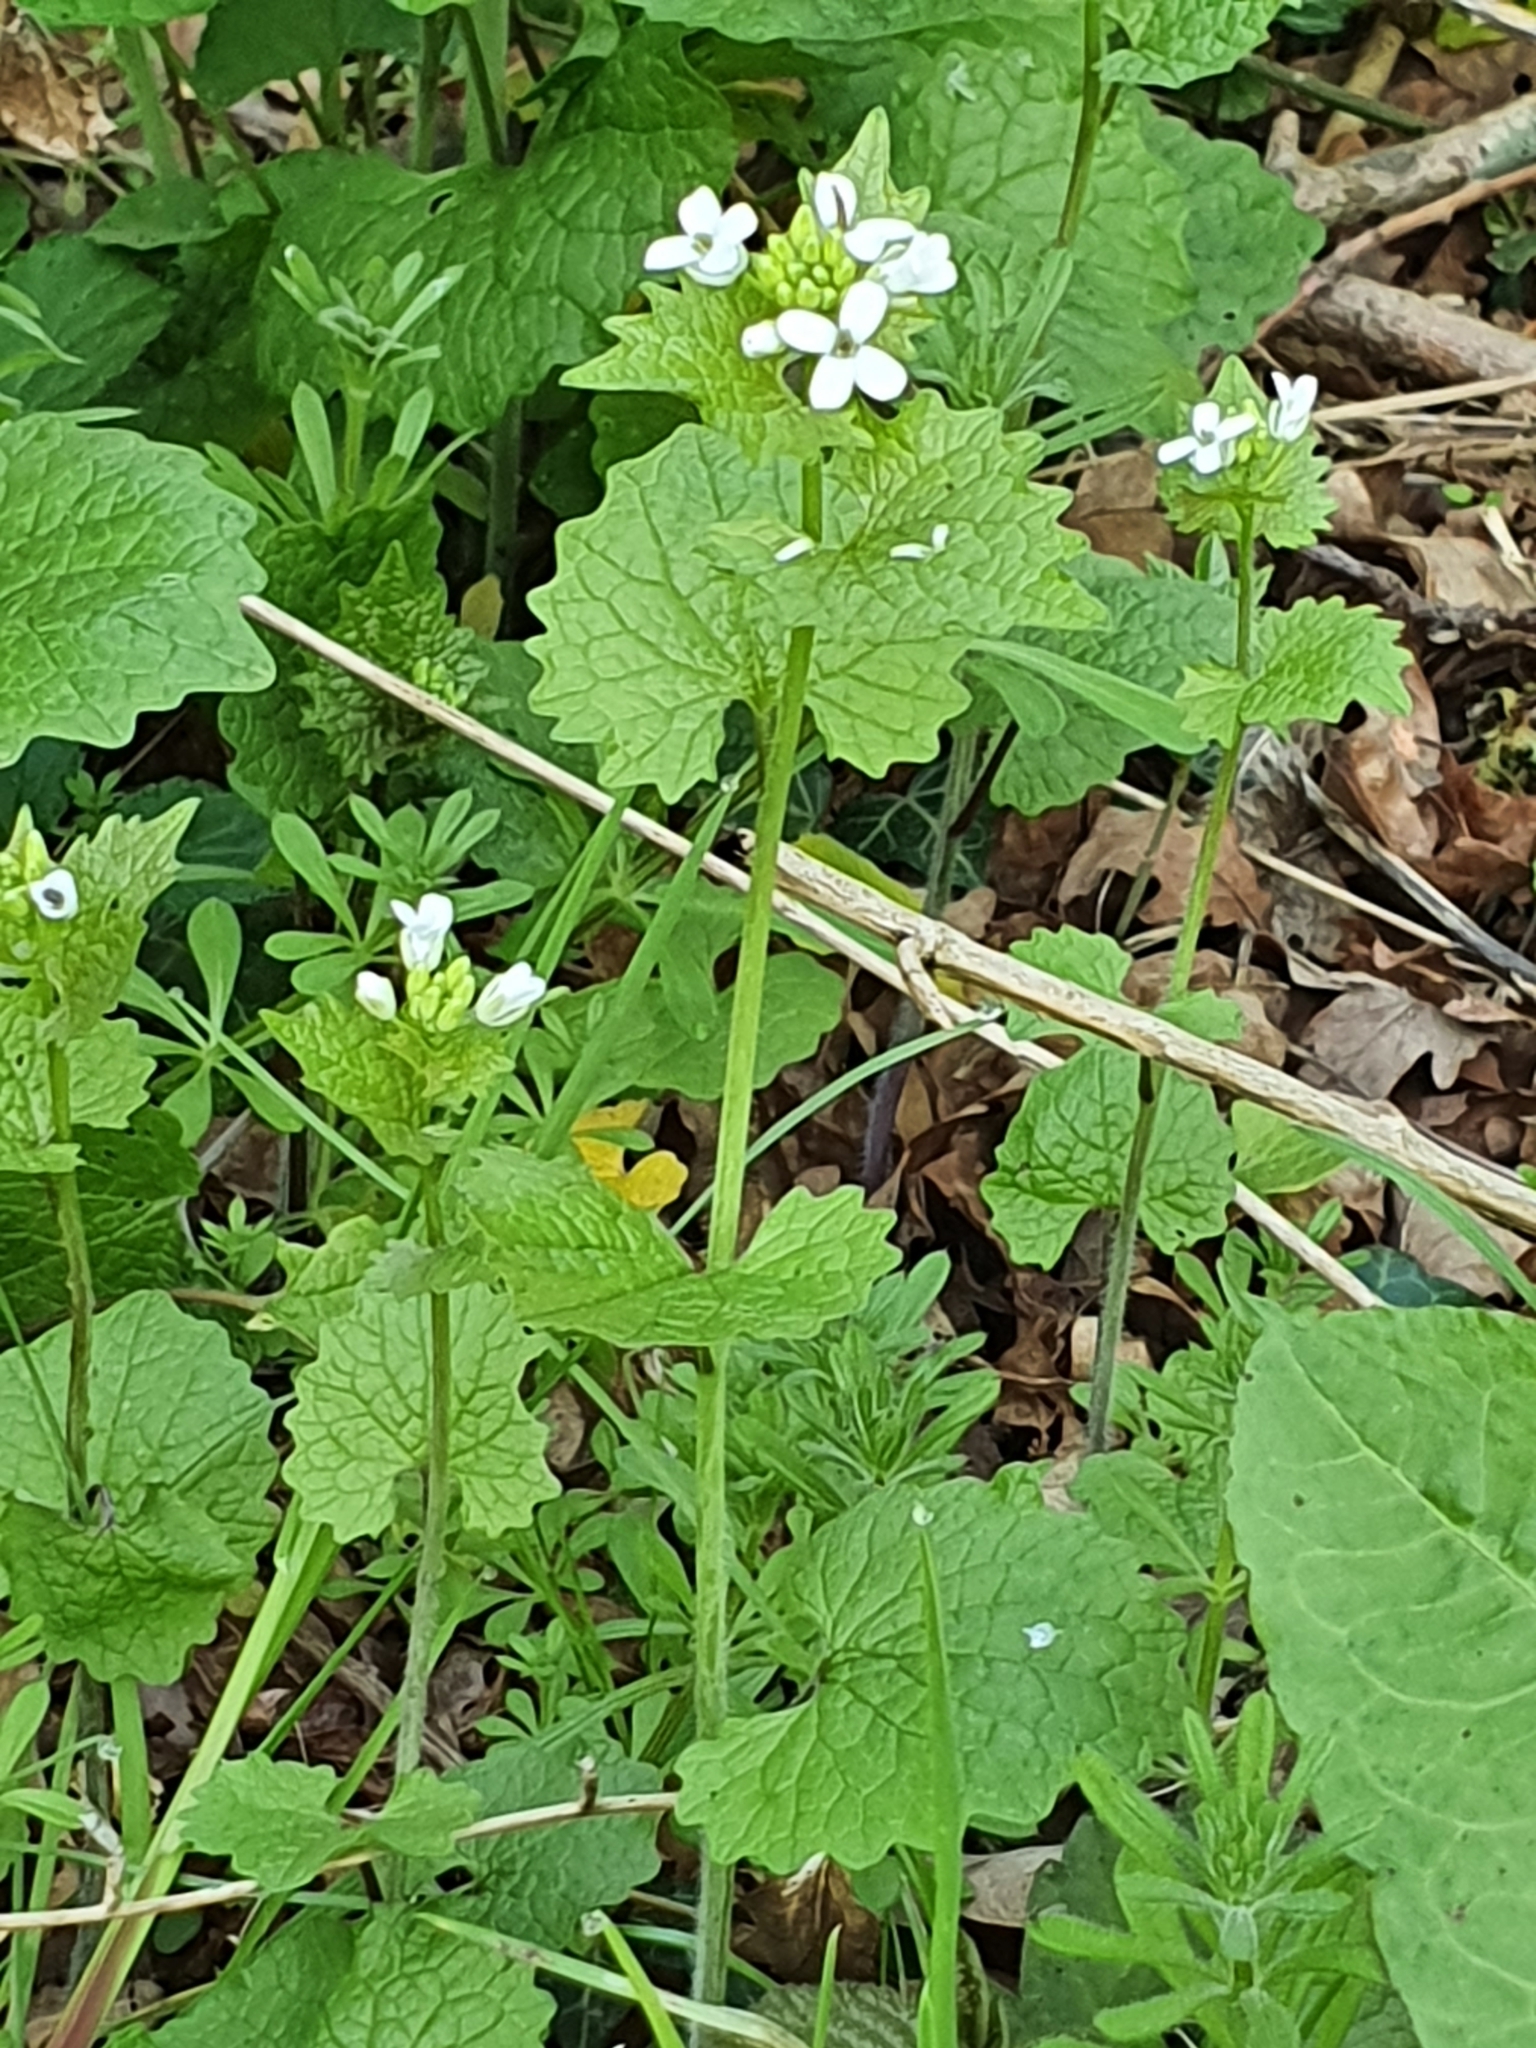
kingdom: Plantae
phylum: Tracheophyta
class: Magnoliopsida
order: Brassicales
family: Brassicaceae
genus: Alliaria
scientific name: Alliaria petiolata
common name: Garlic mustard
